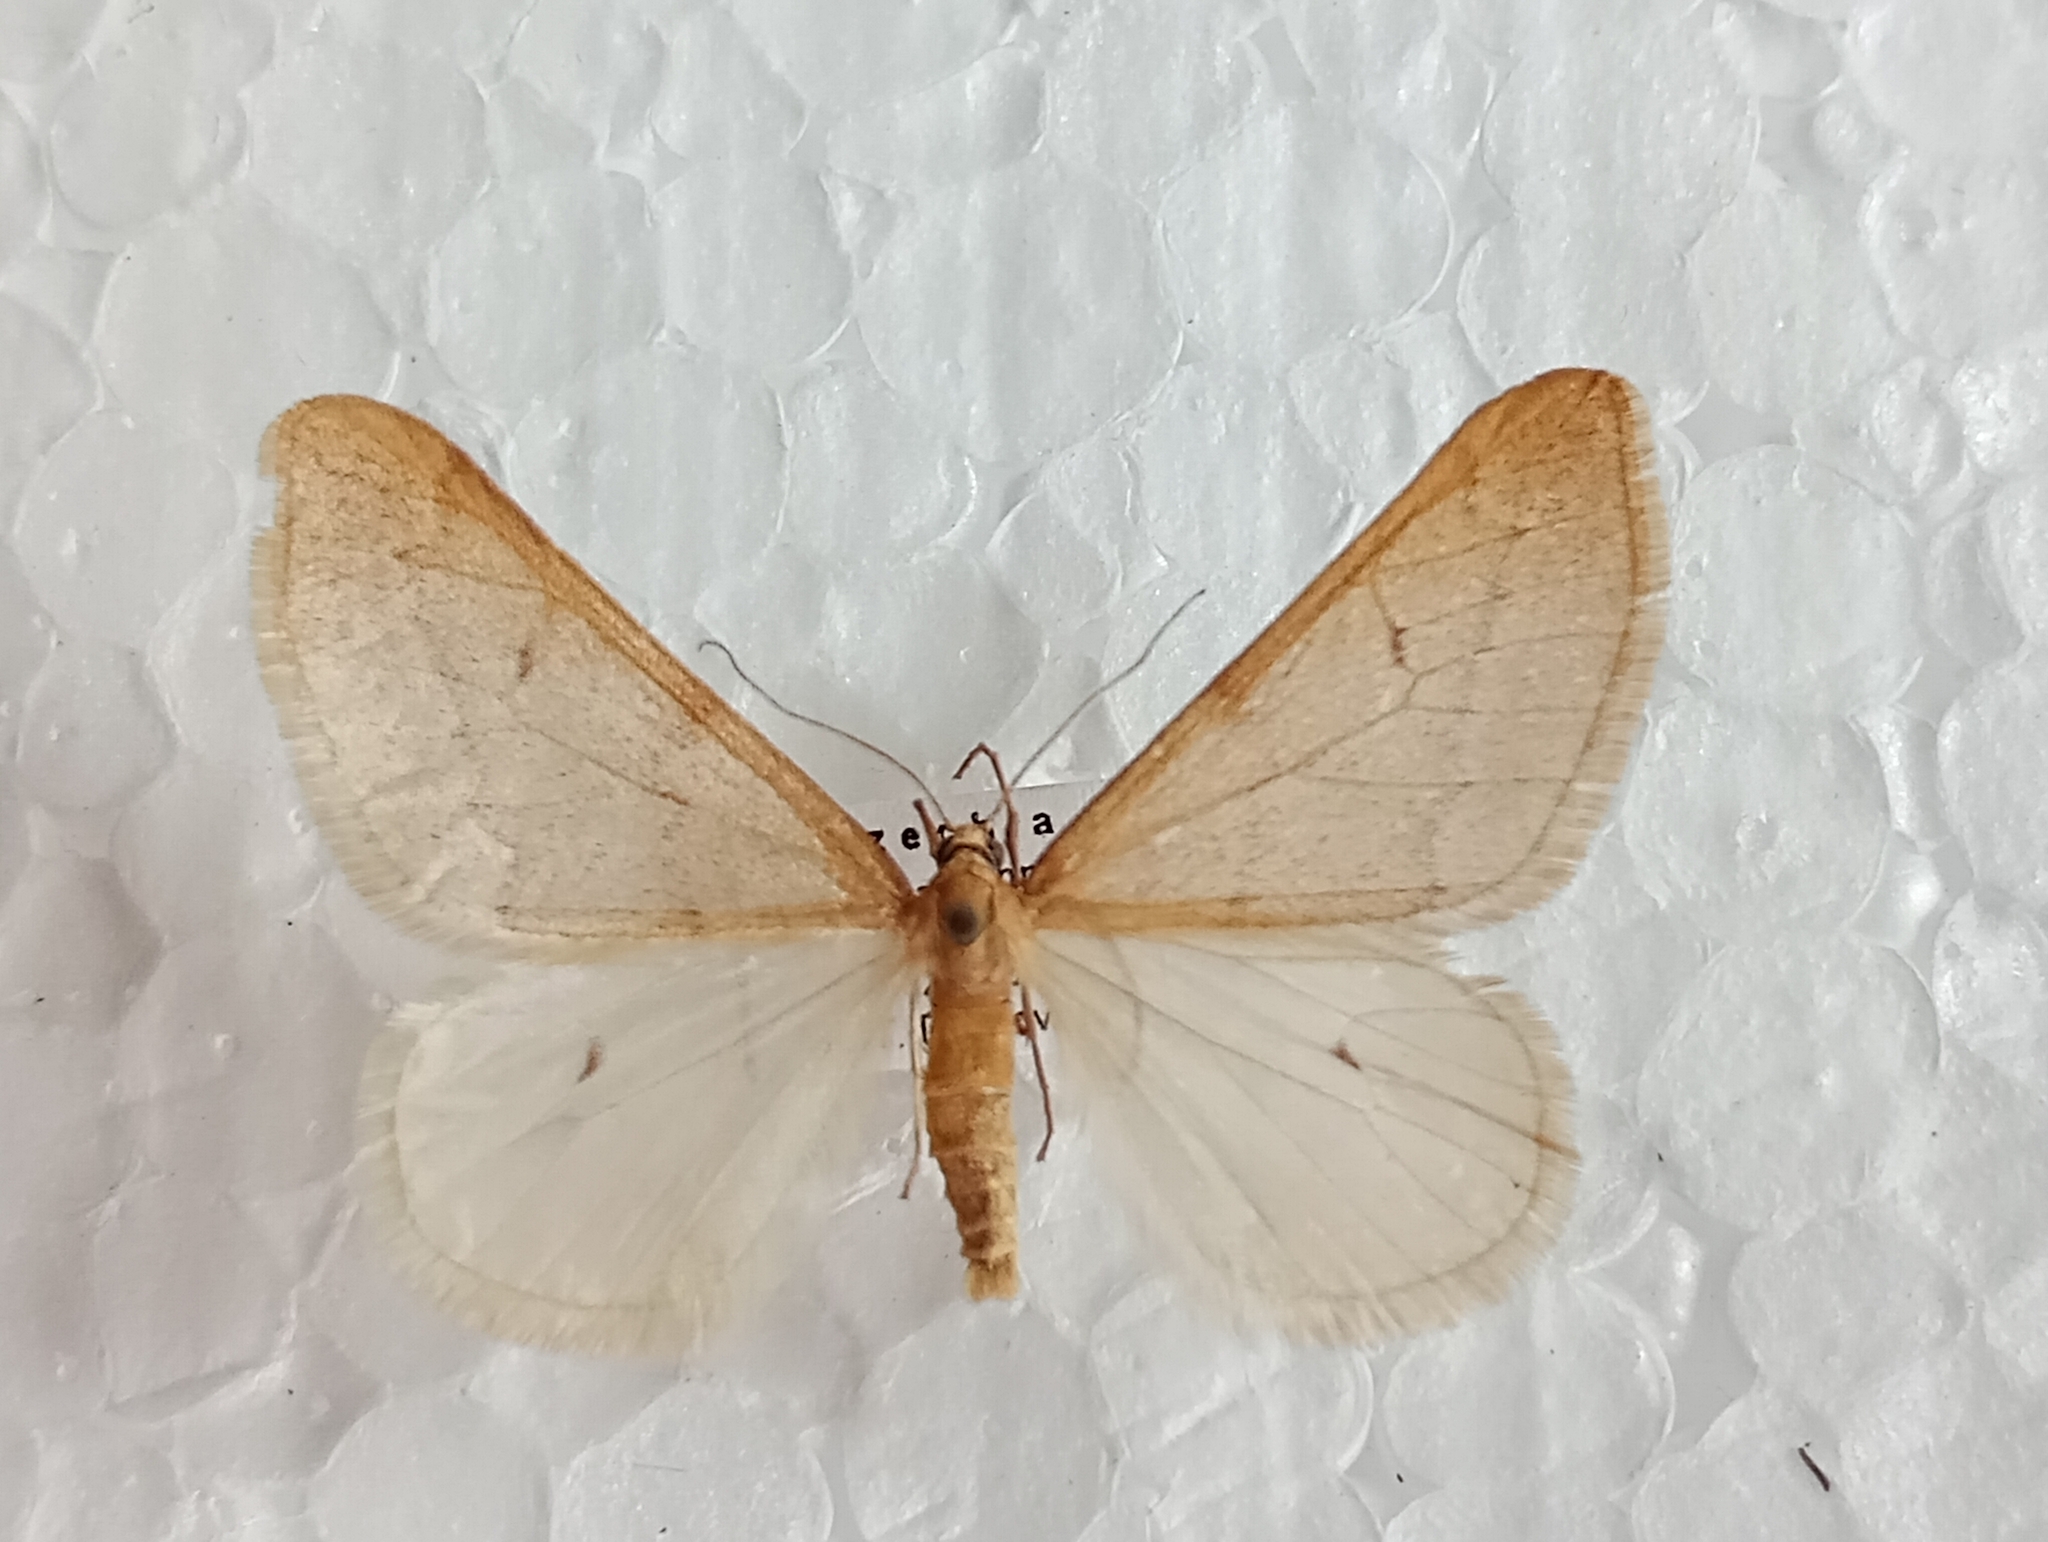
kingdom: Animalia
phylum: Arthropoda
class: Insecta
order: Lepidoptera
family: Geometridae
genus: Alsophila
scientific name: Alsophila aceraria
